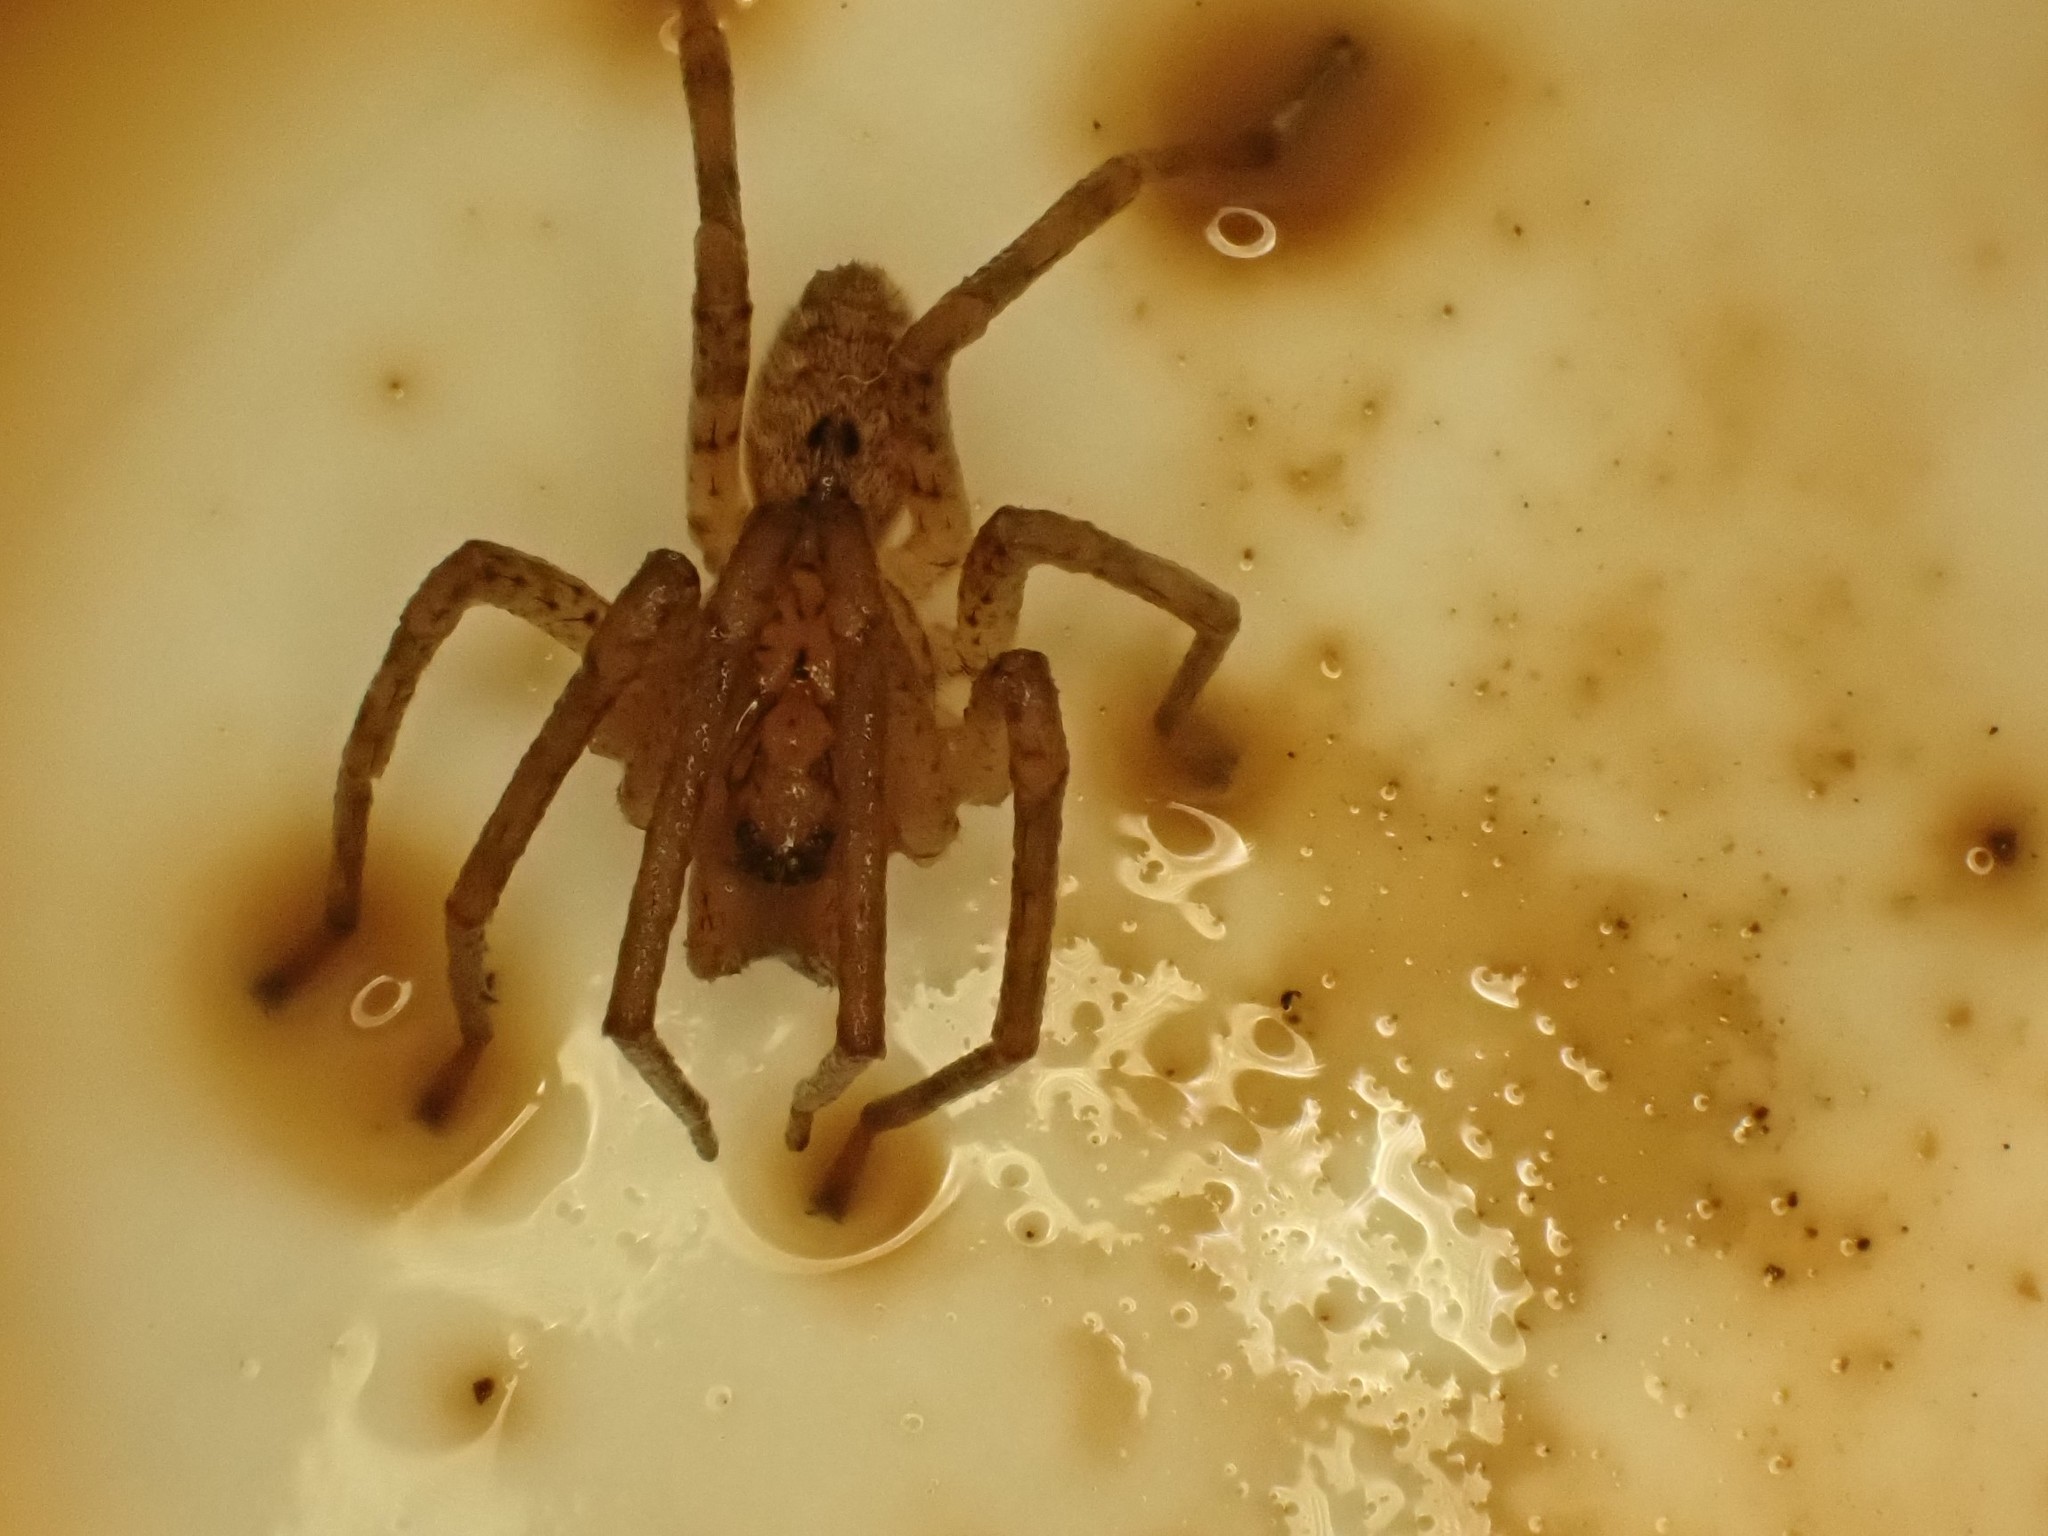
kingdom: Animalia
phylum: Arthropoda
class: Arachnida
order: Araneae
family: Zoropsidae
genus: Zoropsis
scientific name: Zoropsis spinimana
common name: Zoropsid spider
